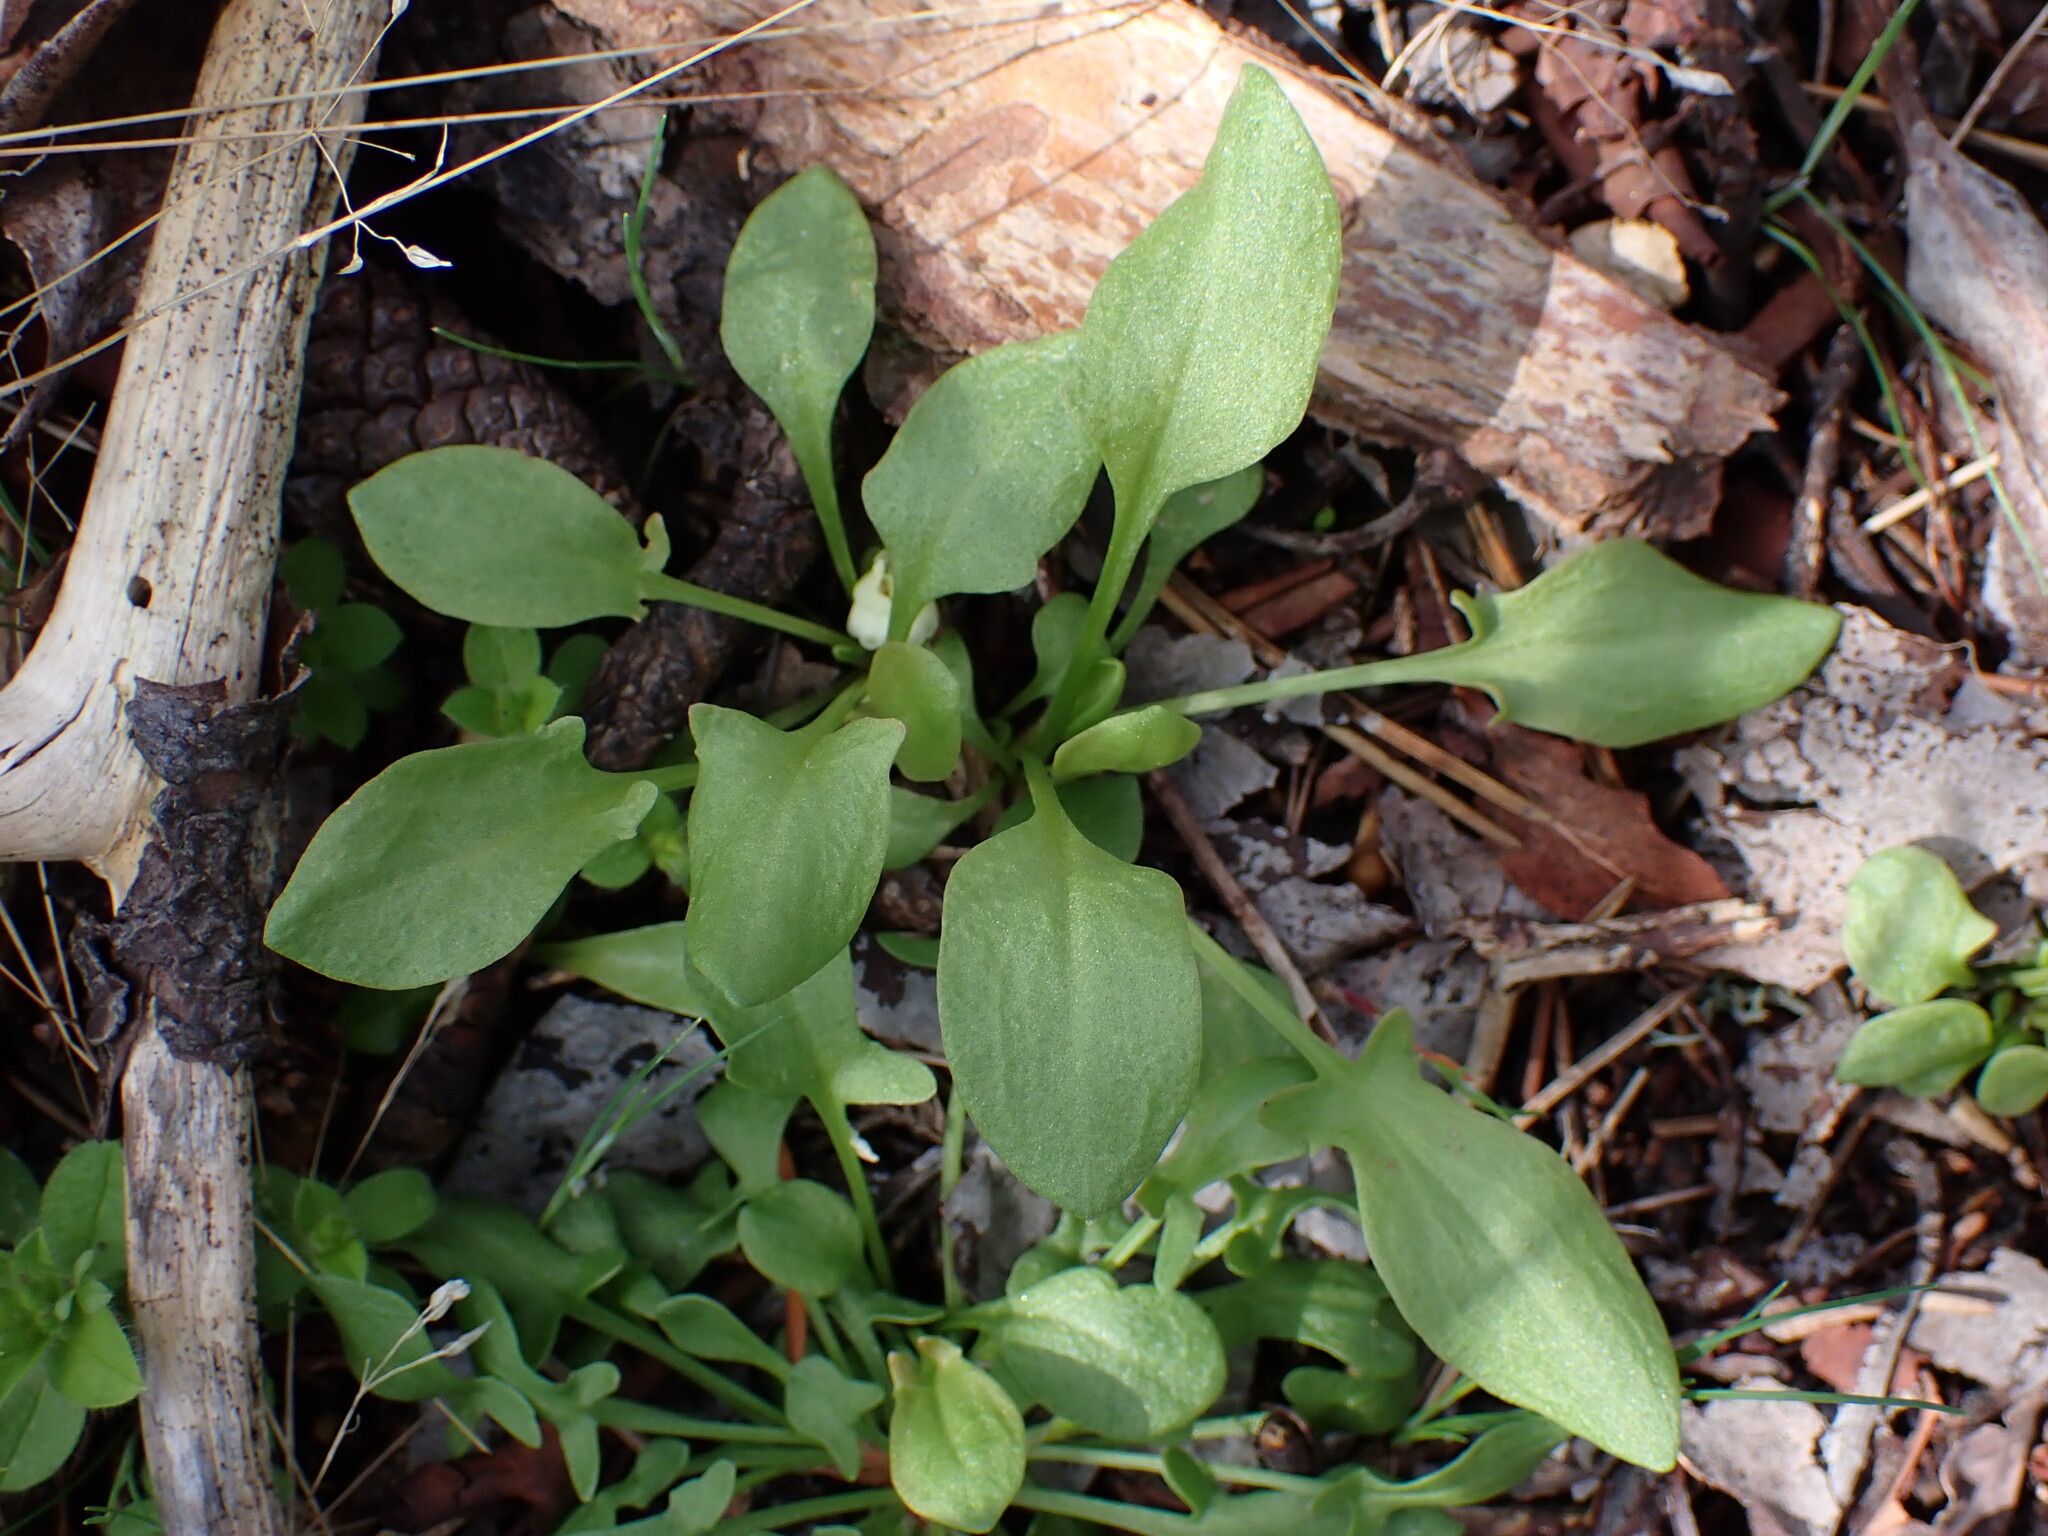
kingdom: Plantae
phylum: Tracheophyta
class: Magnoliopsida
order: Caryophyllales
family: Polygonaceae
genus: Rumex
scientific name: Rumex acetosella
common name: Common sheep sorrel
